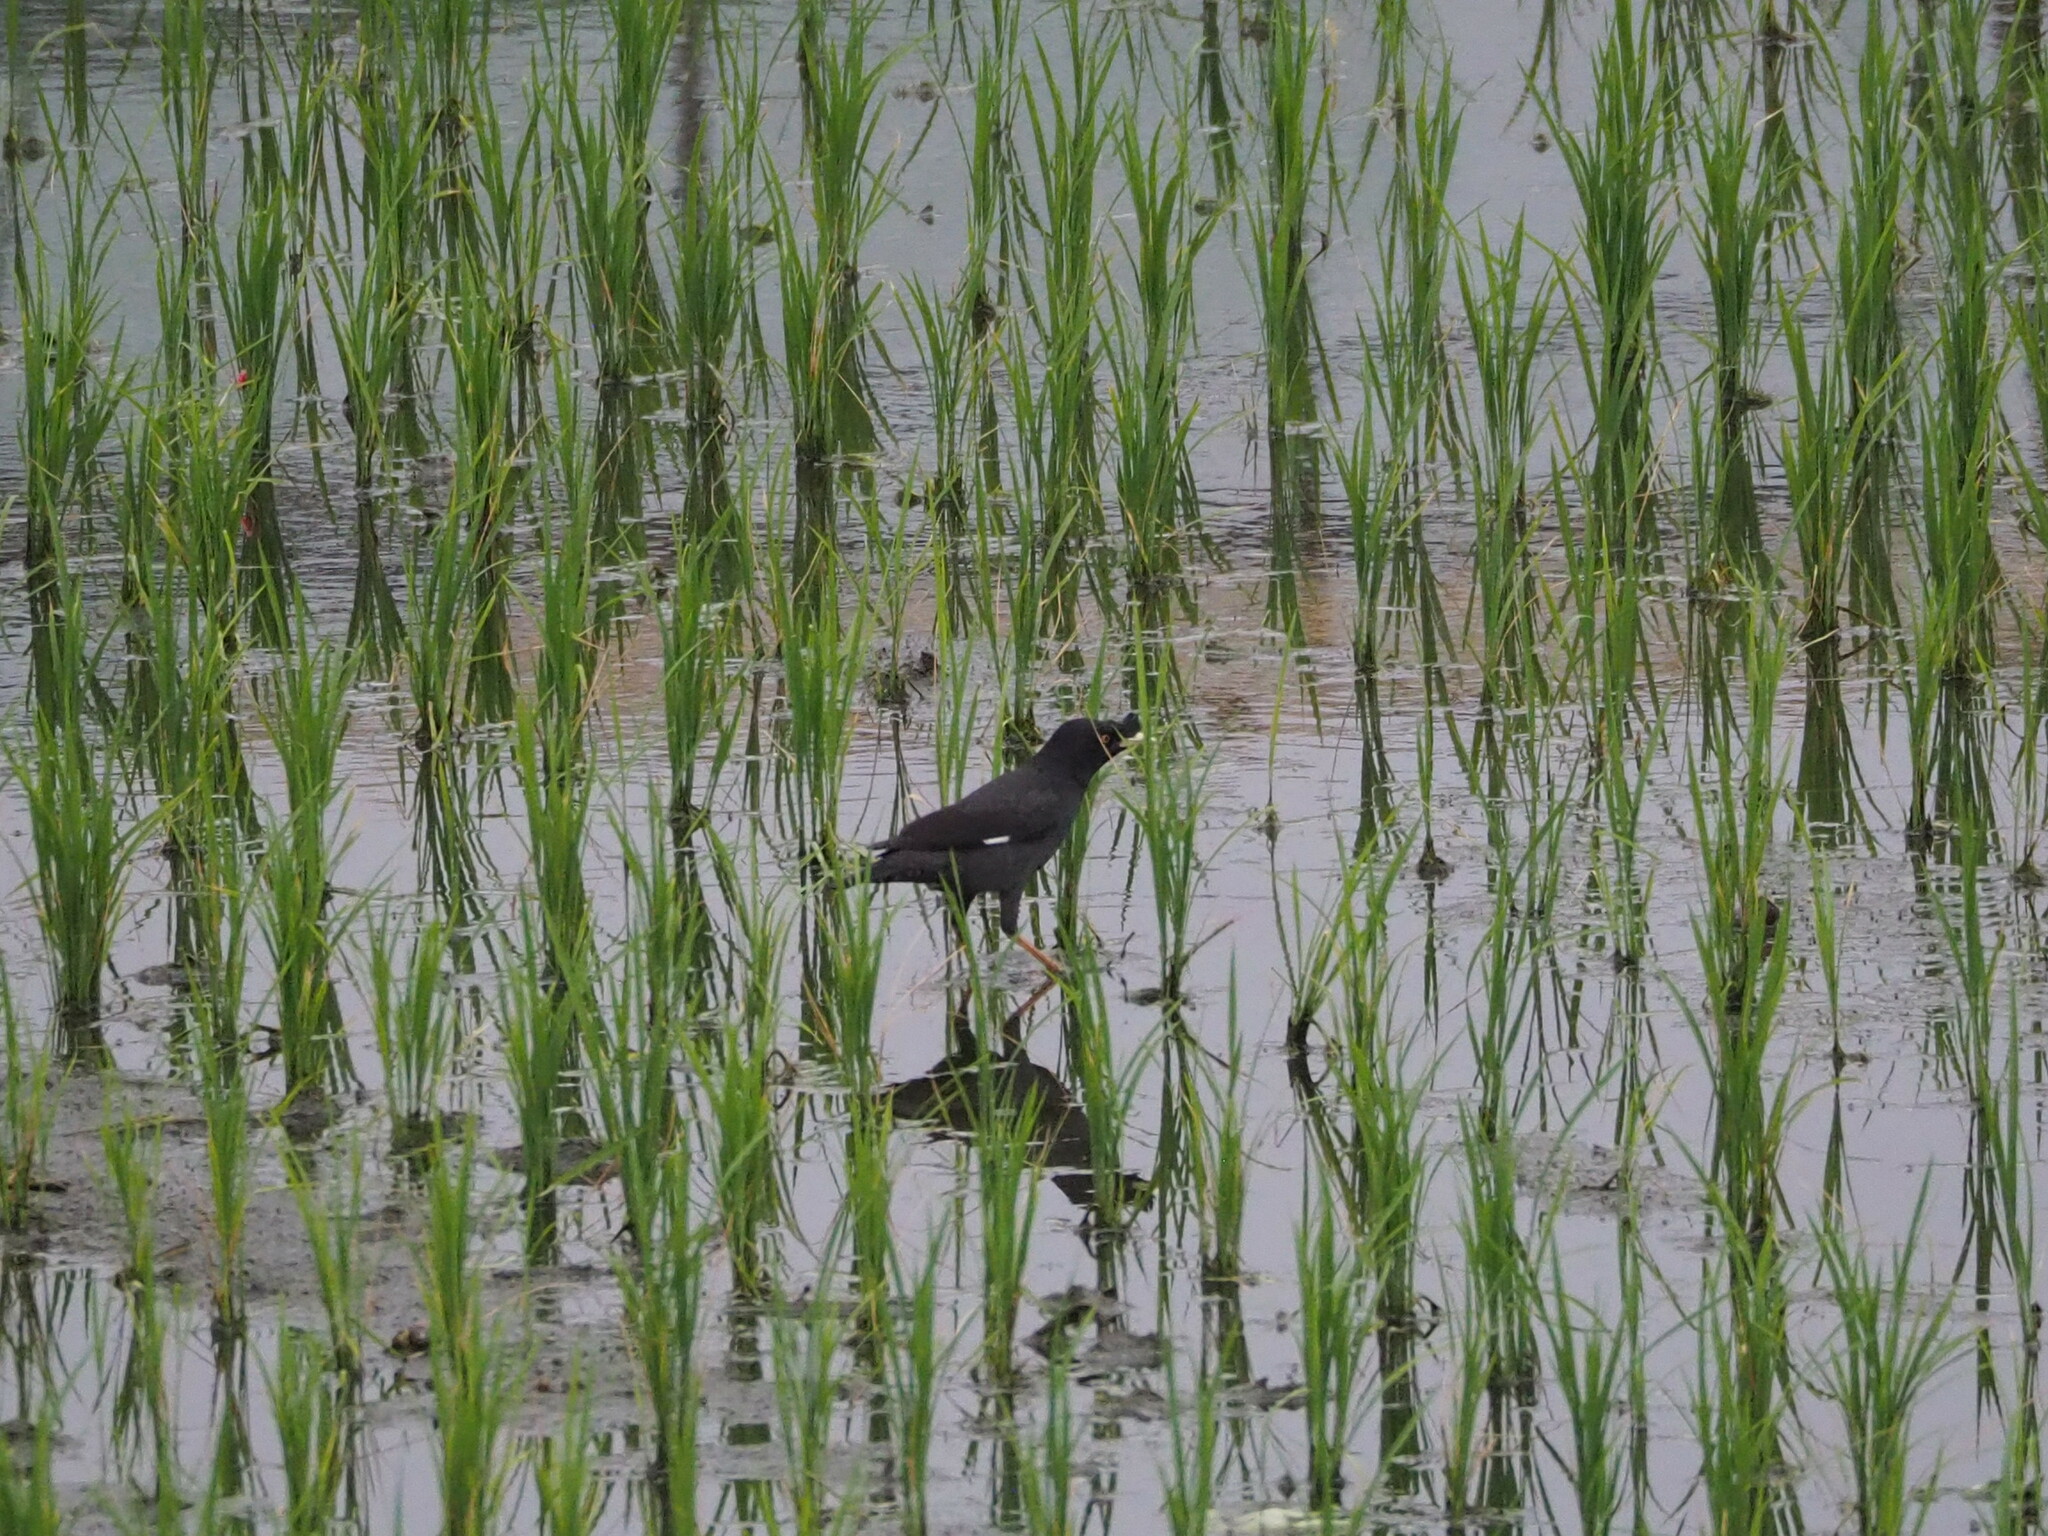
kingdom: Animalia
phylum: Chordata
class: Aves
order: Passeriformes
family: Sturnidae
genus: Acridotheres
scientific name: Acridotheres cristatellus
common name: Crested myna
